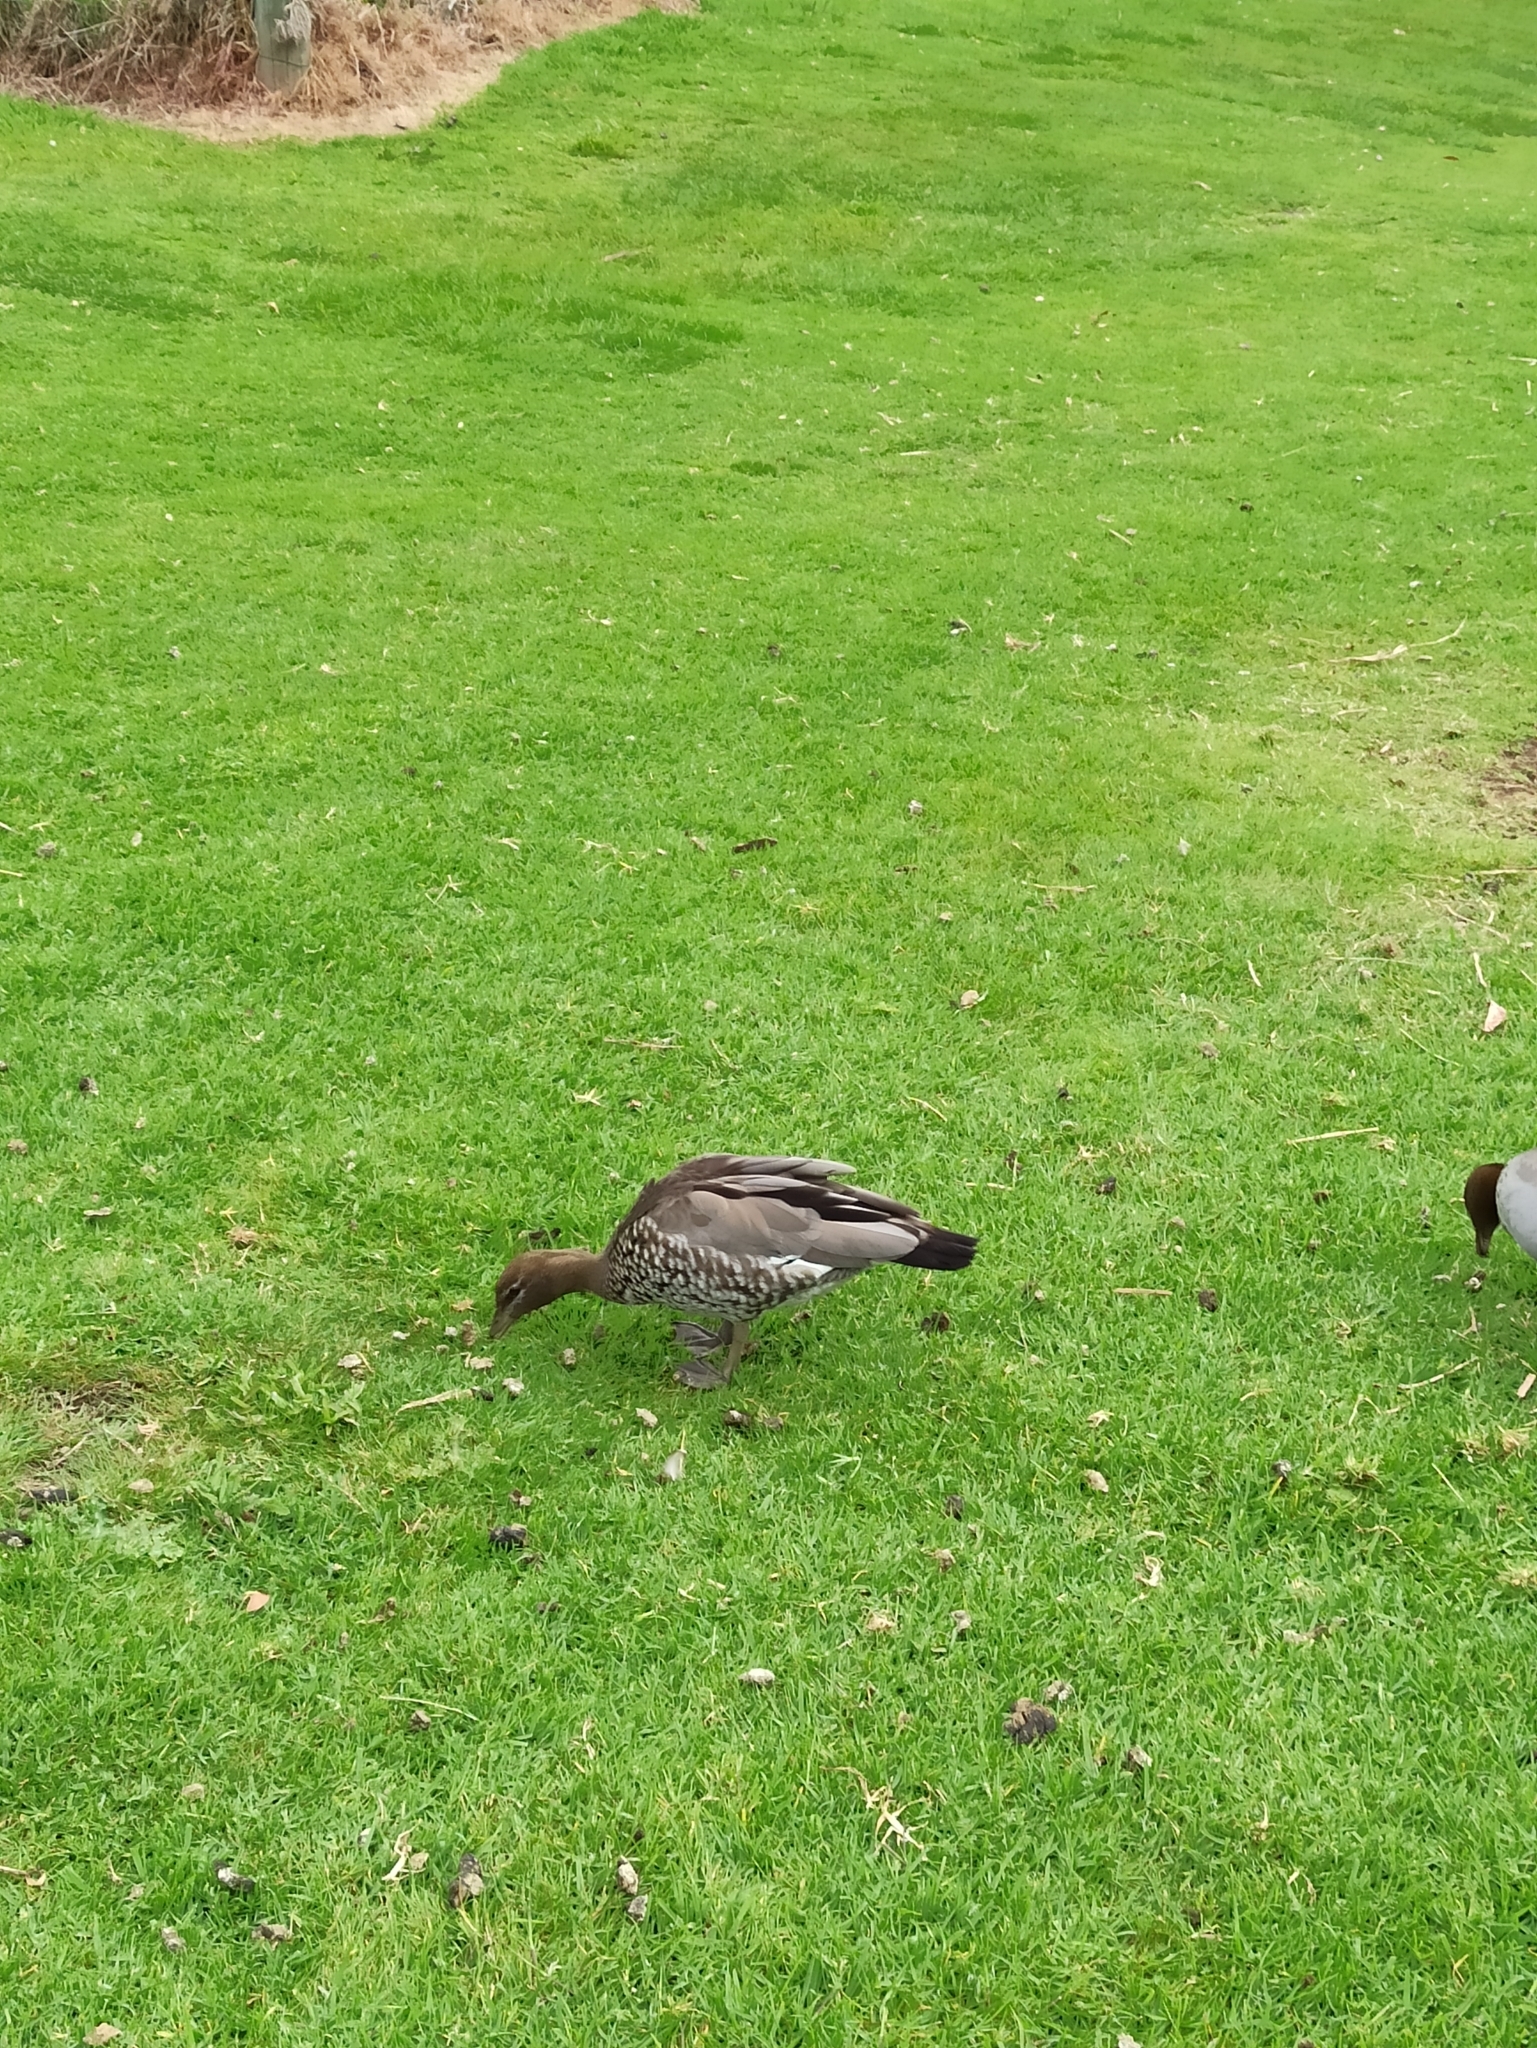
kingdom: Animalia
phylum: Chordata
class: Aves
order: Anseriformes
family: Anatidae
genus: Chenonetta
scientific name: Chenonetta jubata
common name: Maned duck
